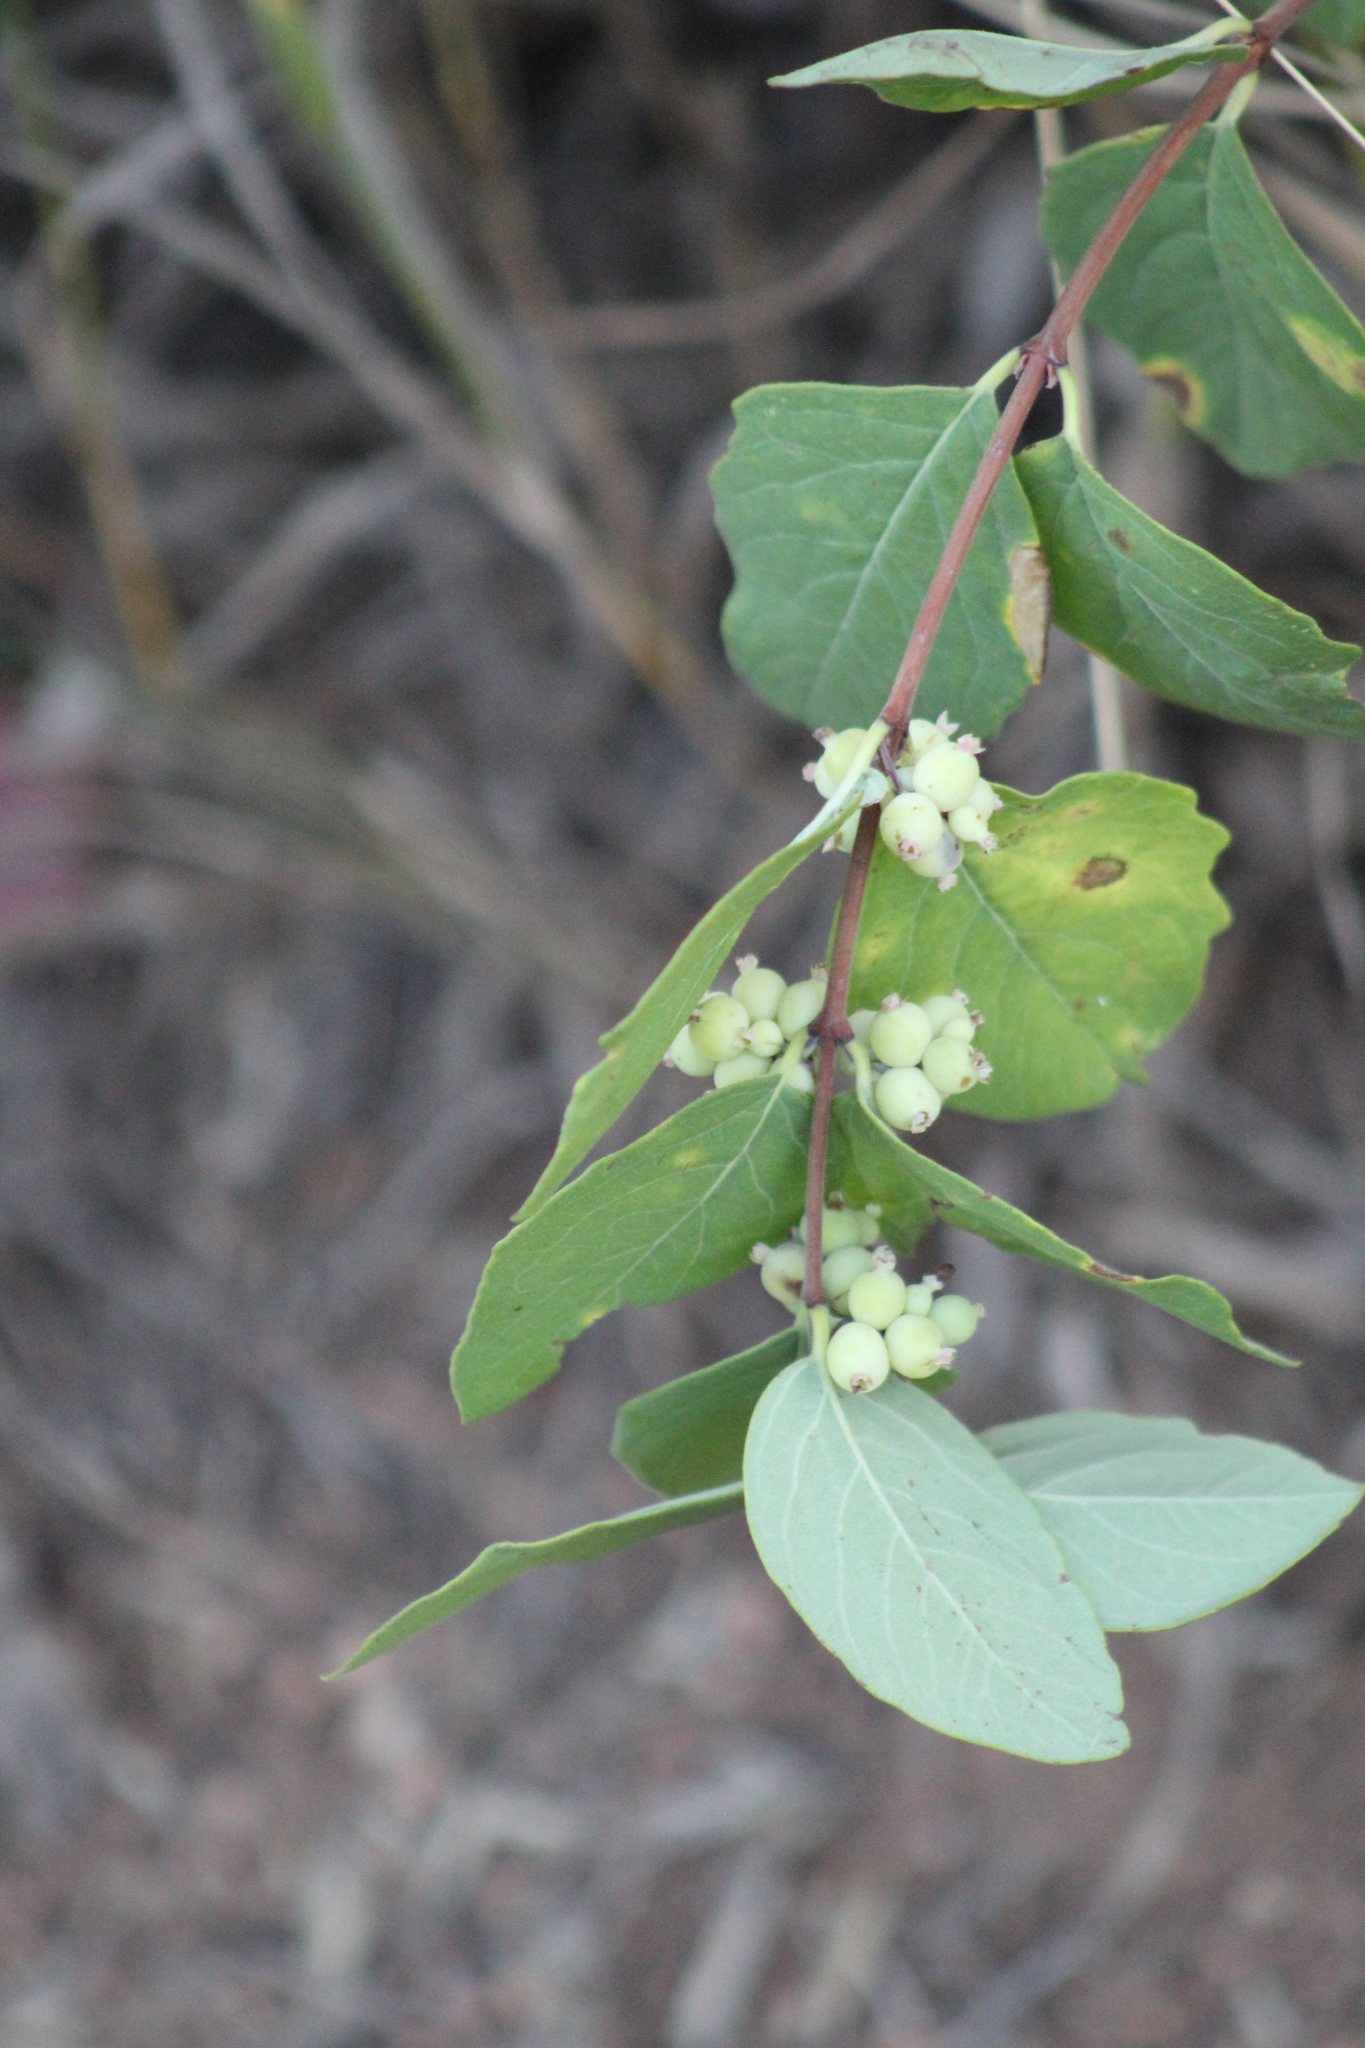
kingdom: Plantae
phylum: Tracheophyta
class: Magnoliopsida
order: Dipsacales
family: Caprifoliaceae
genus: Symphoricarpos
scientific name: Symphoricarpos albus
